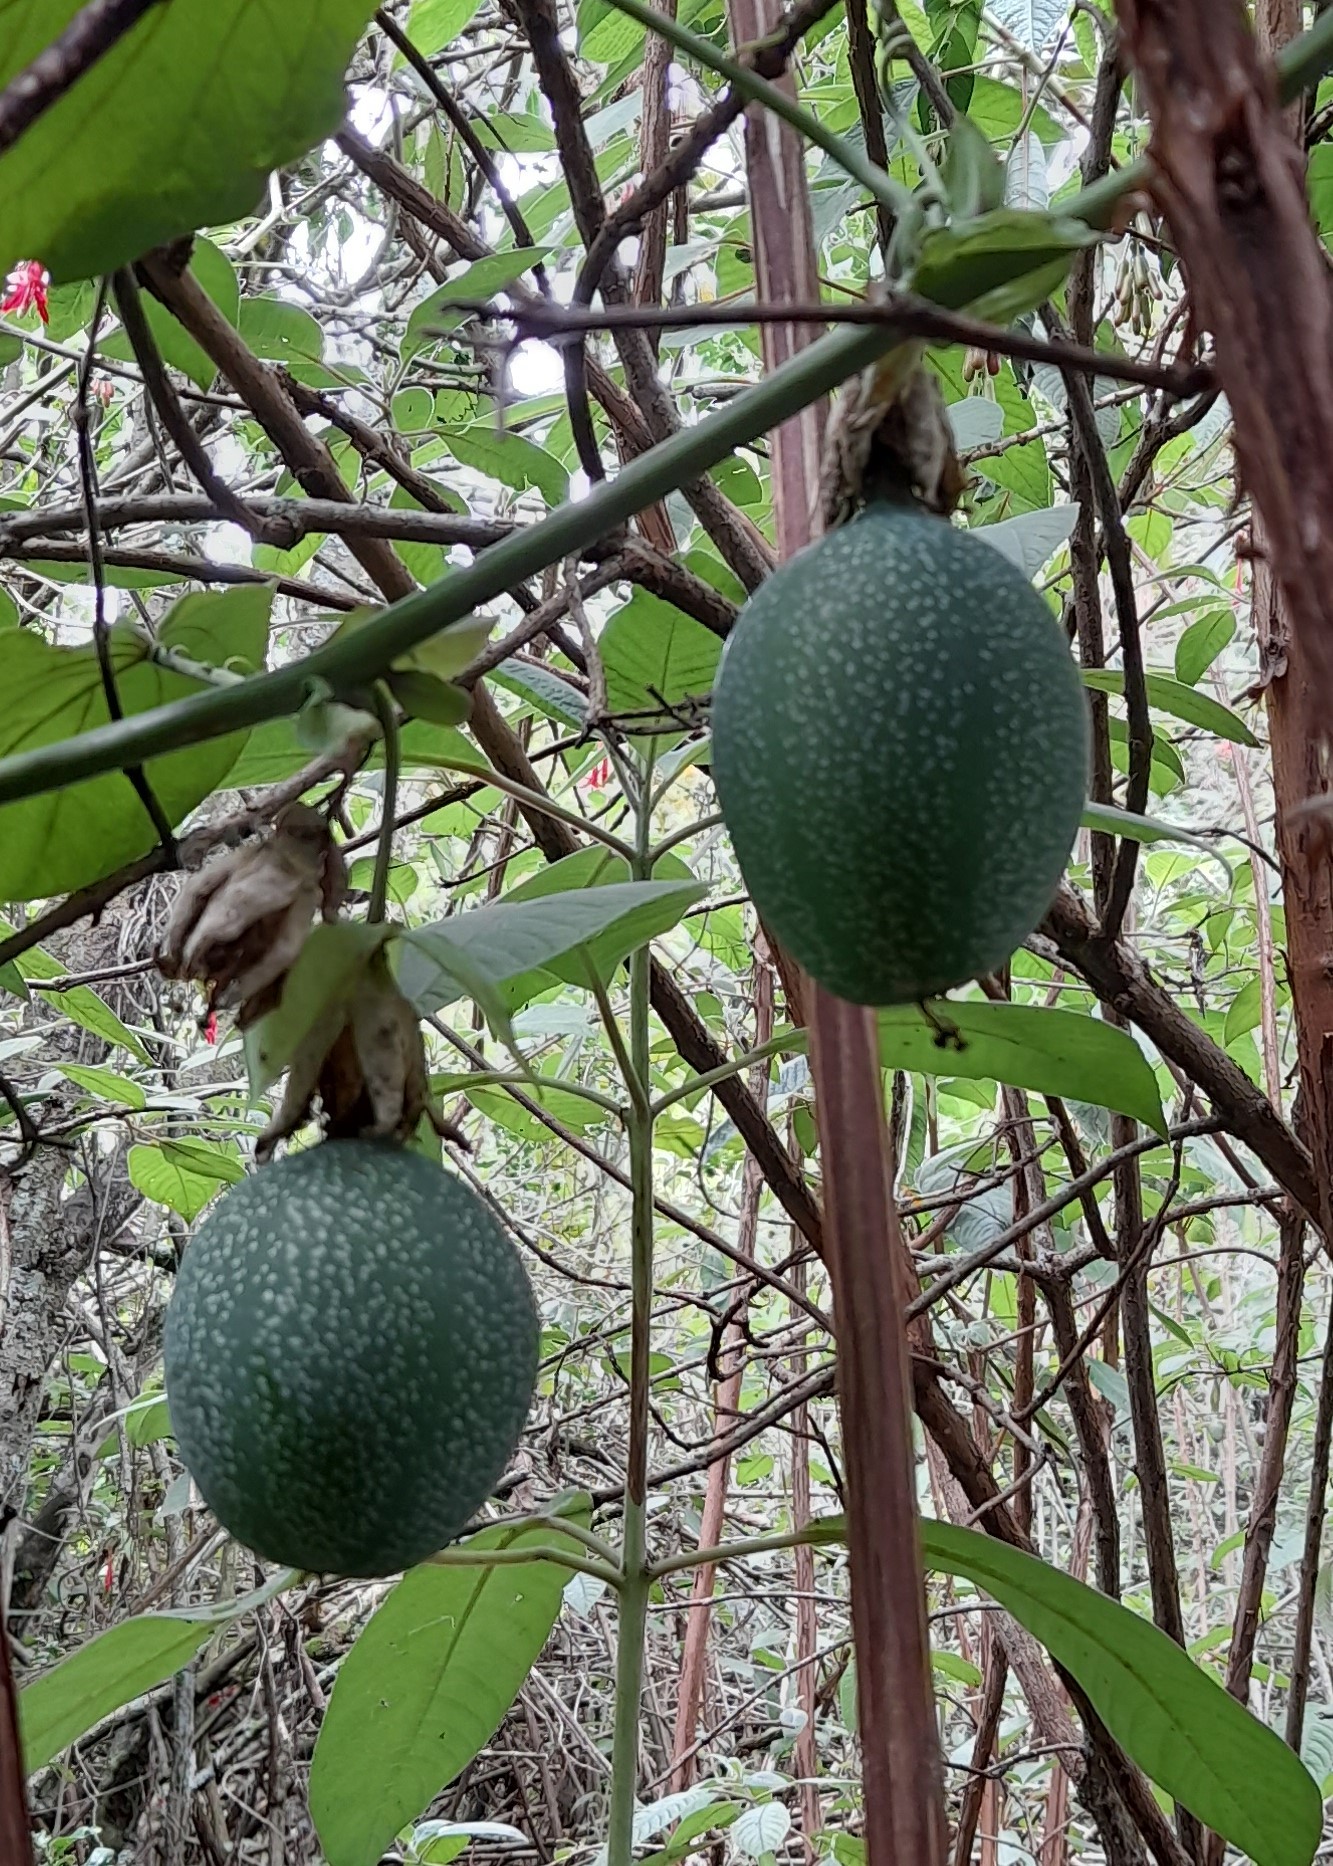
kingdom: Plantae
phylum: Tracheophyta
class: Magnoliopsida
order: Malpighiales
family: Passifloraceae
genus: Passiflora
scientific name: Passiflora ligularis
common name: Sweet granadilla
